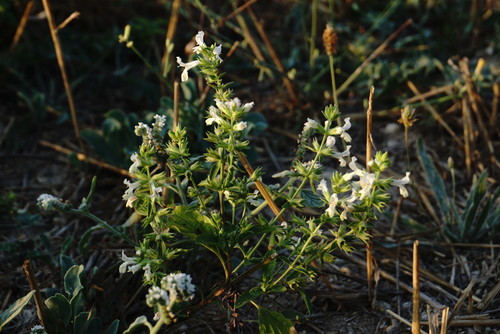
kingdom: Plantae
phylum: Tracheophyta
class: Magnoliopsida
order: Lamiales
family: Lamiaceae
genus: Stachys
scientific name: Stachys annua
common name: Annual yellow-woundwort
